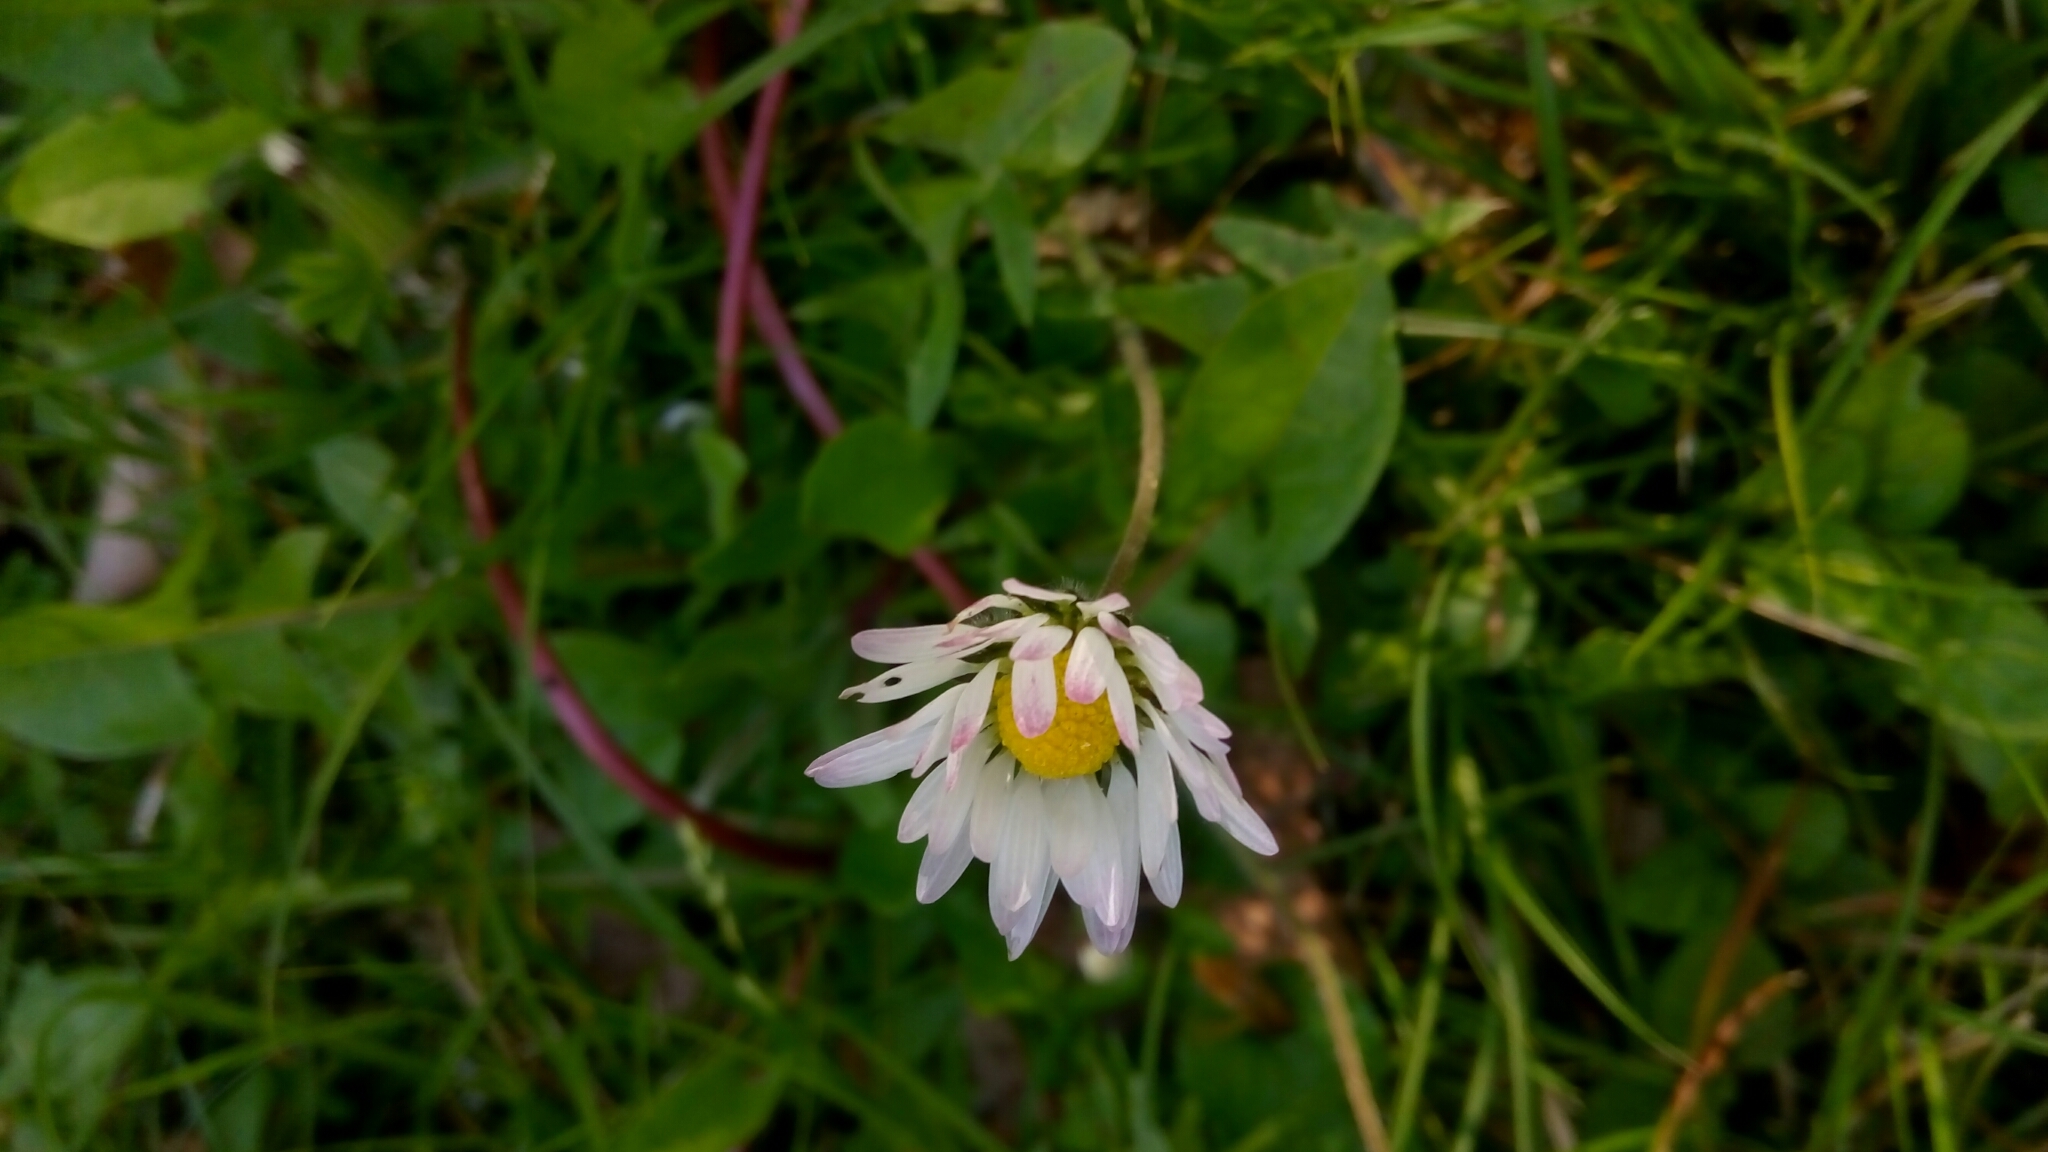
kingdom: Plantae
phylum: Tracheophyta
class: Magnoliopsida
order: Asterales
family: Asteraceae
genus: Bellis
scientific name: Bellis perennis
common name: Lawndaisy
